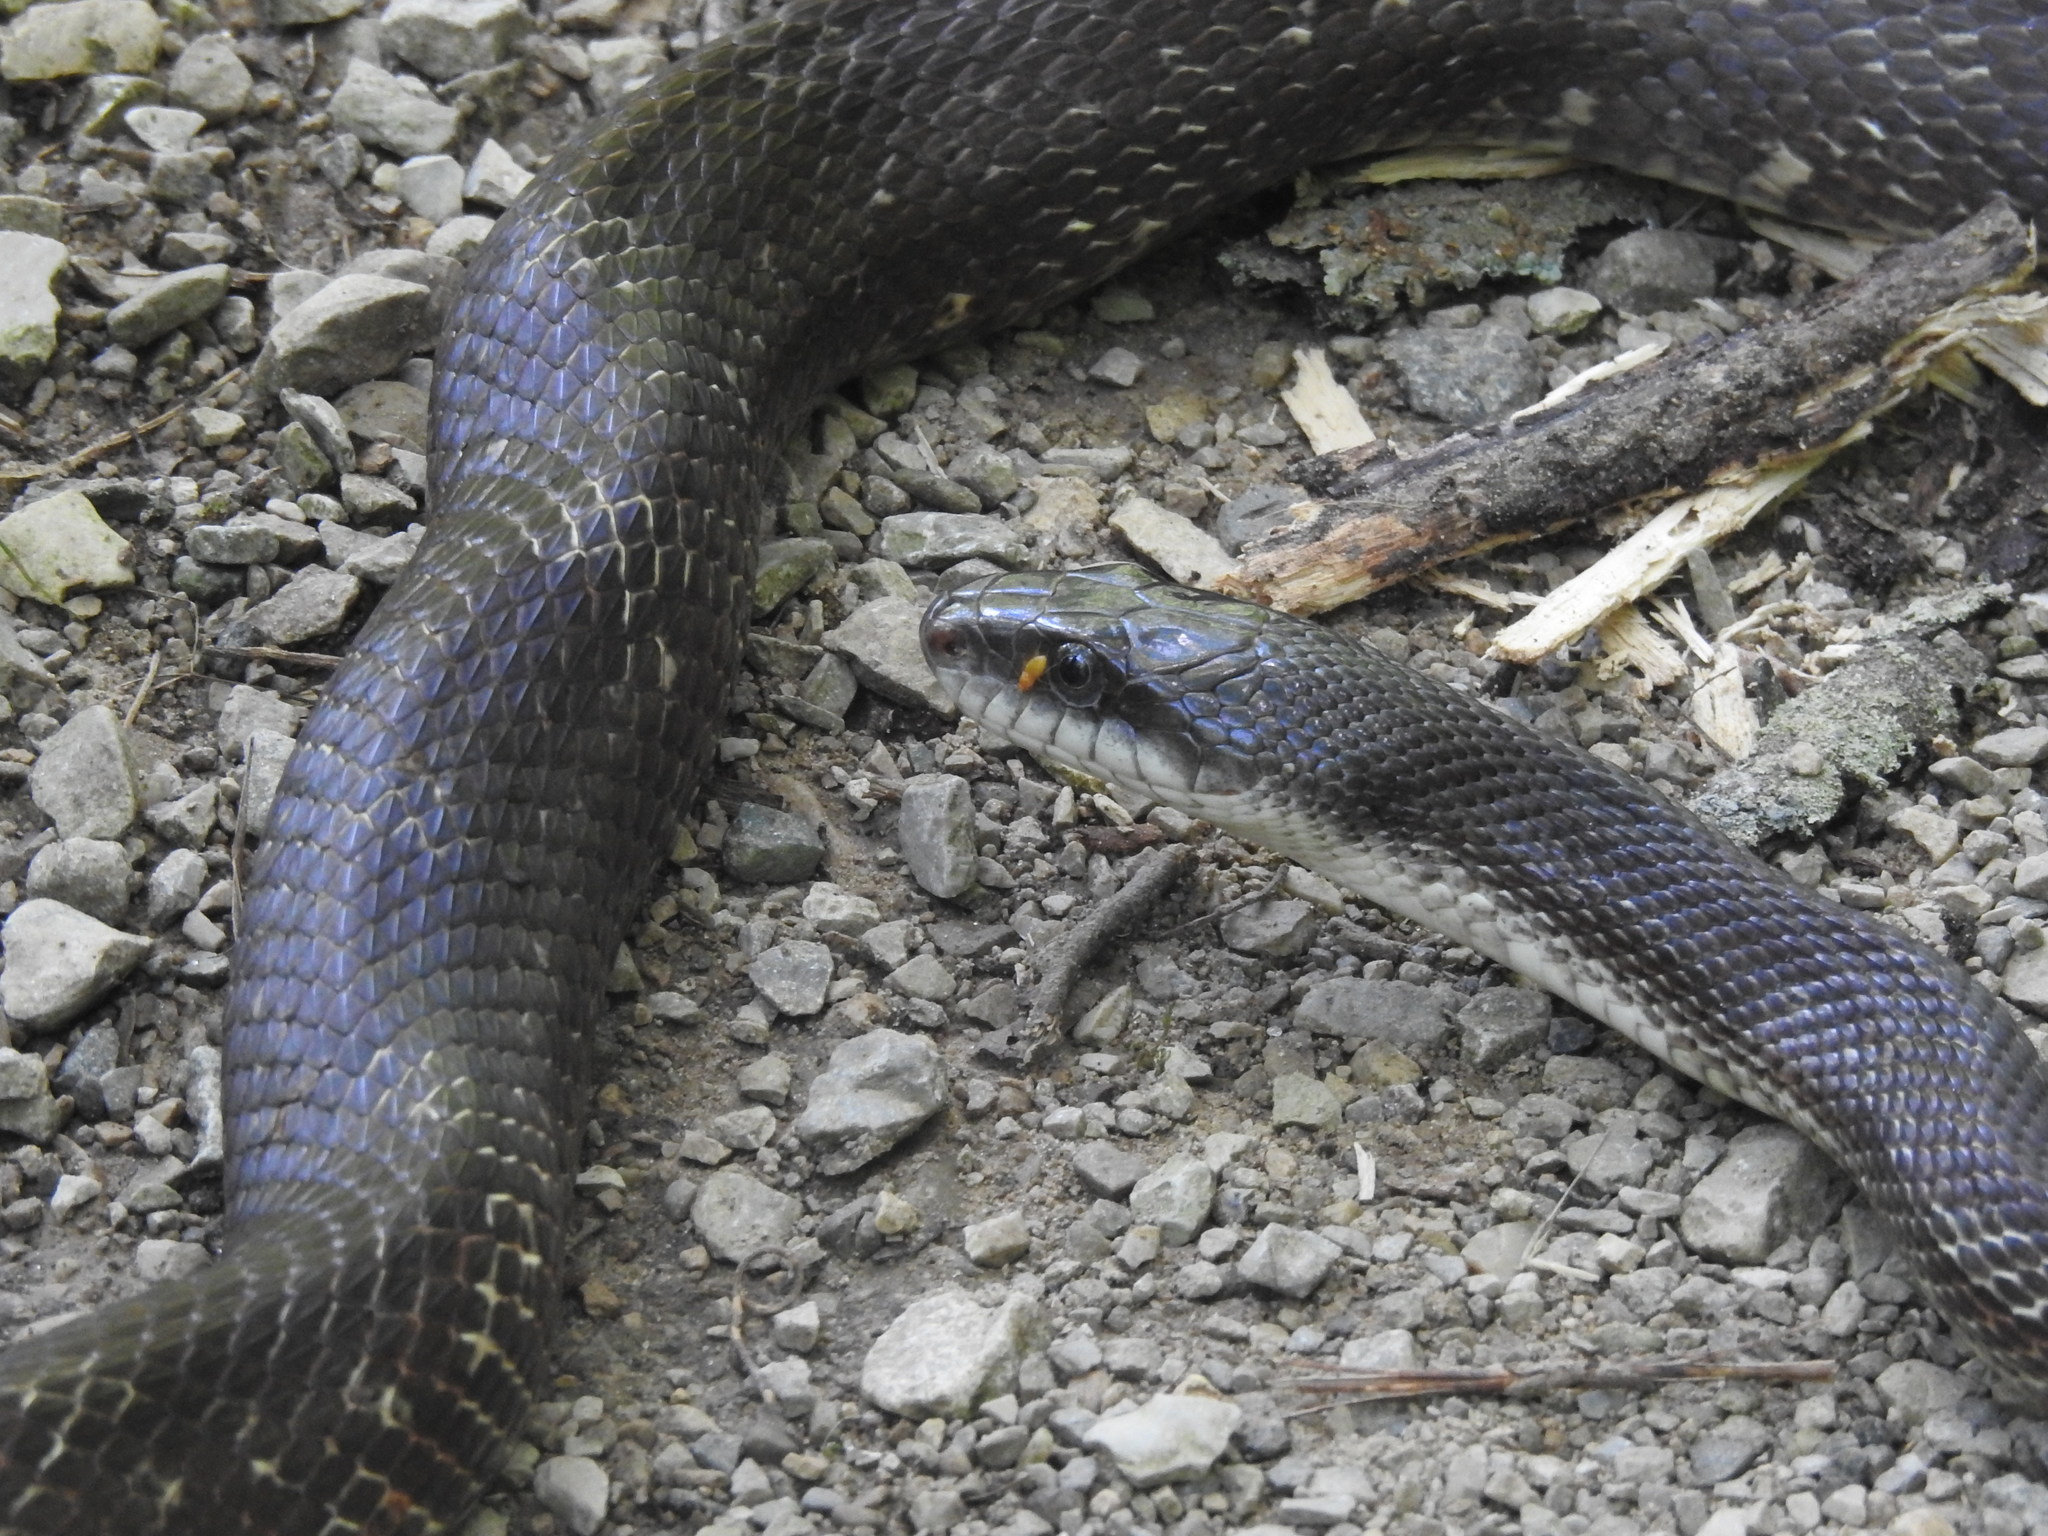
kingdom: Animalia
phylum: Chordata
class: Squamata
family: Colubridae
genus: Pantherophis
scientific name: Pantherophis spiloides
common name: Gray rat snake
